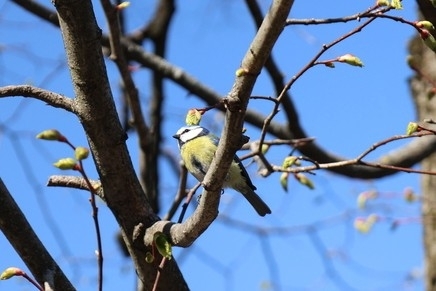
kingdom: Animalia
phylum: Chordata
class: Aves
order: Passeriformes
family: Paridae
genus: Cyanistes
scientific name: Cyanistes caeruleus
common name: Eurasian blue tit
